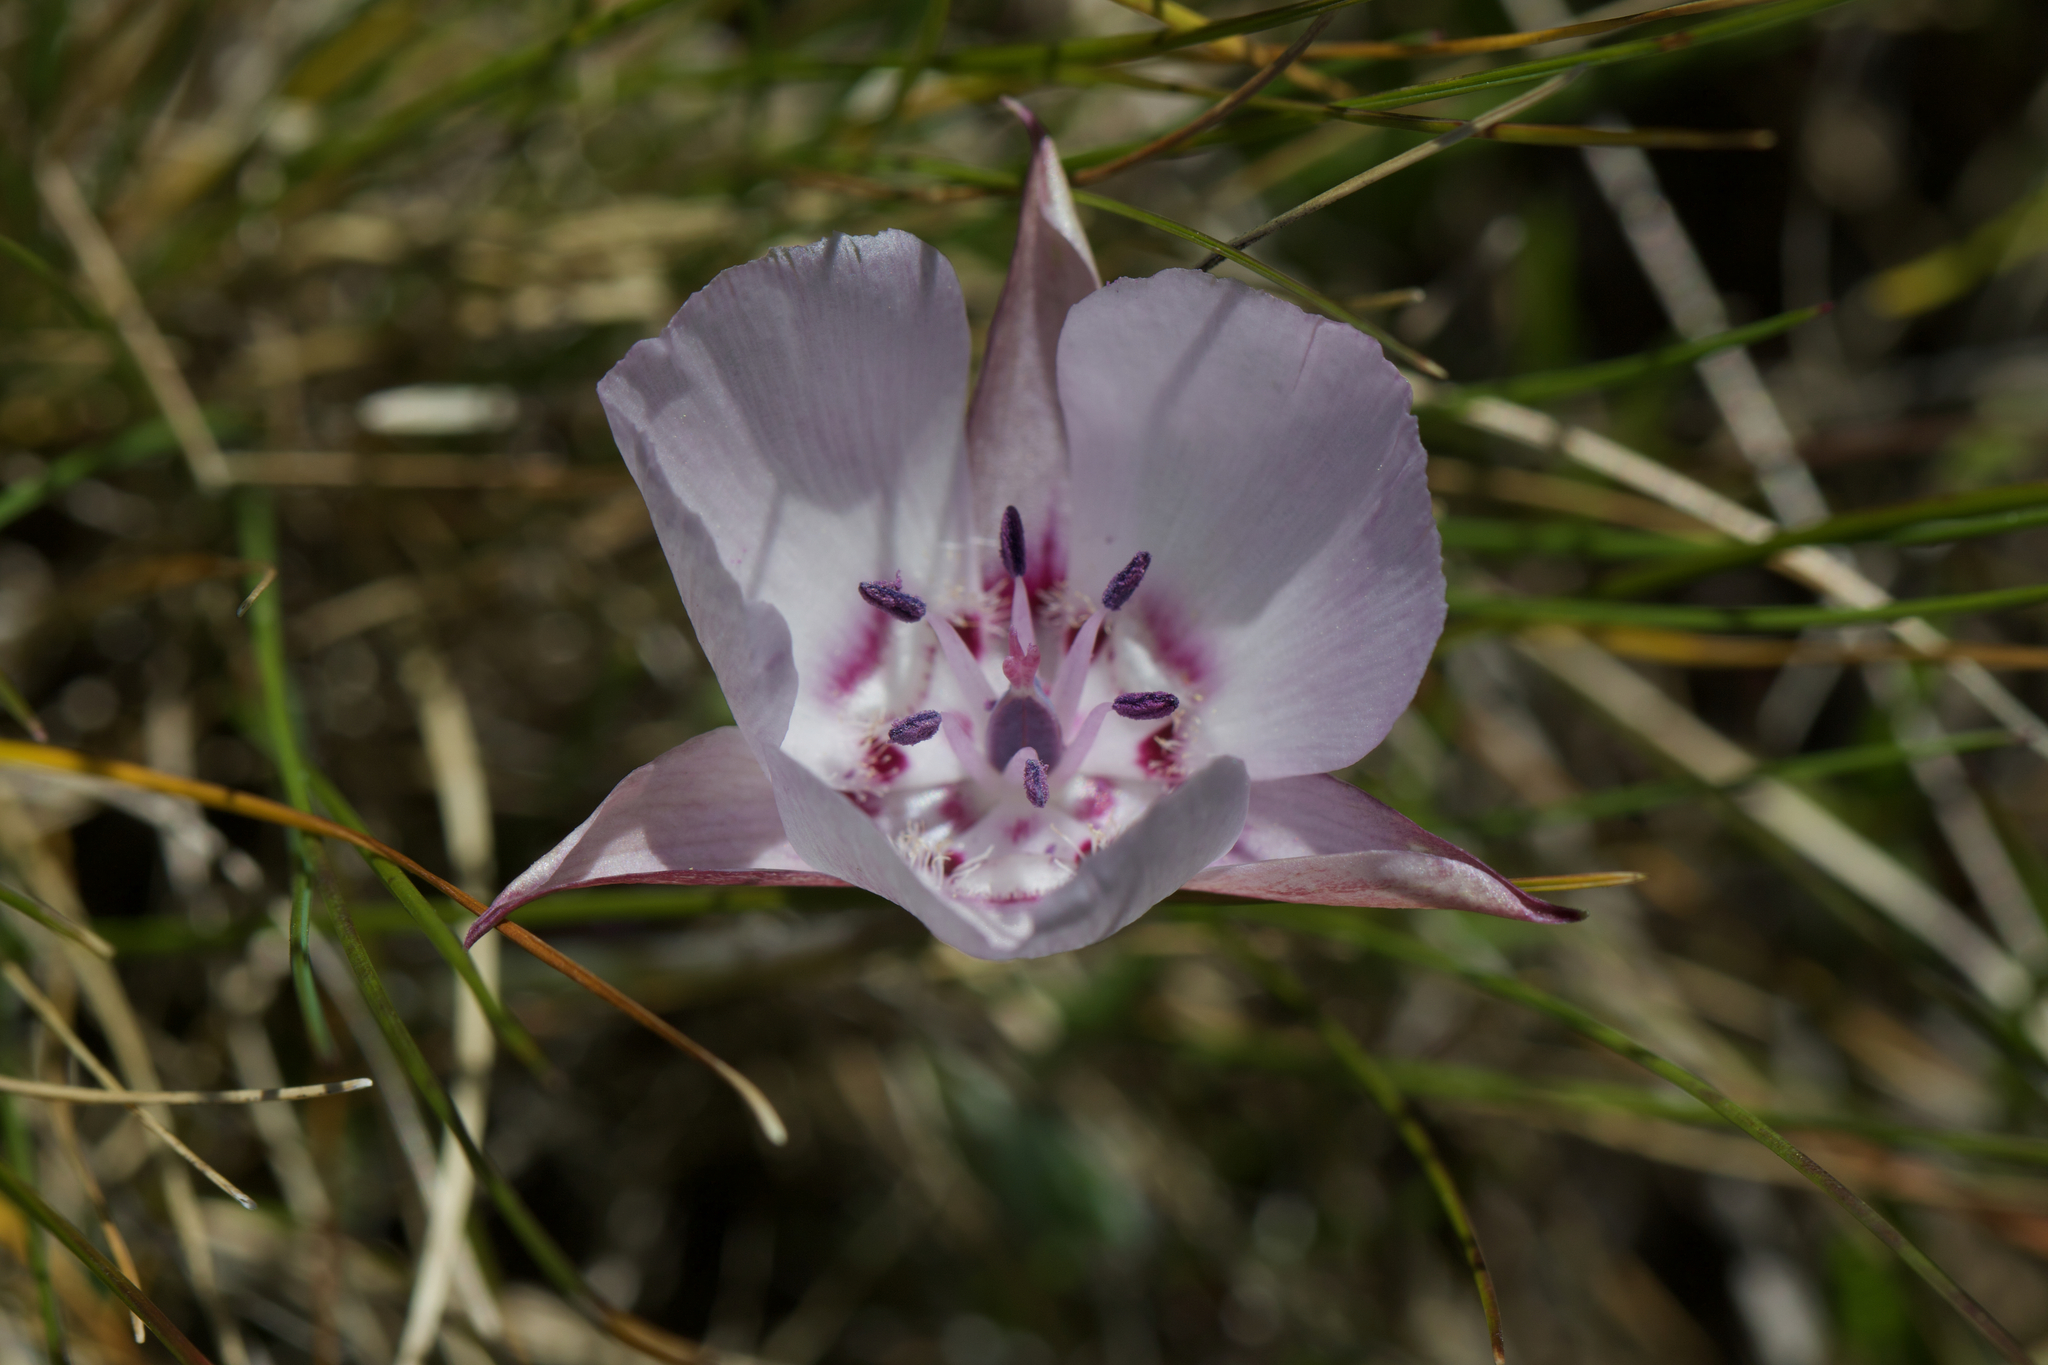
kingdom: Plantae
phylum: Tracheophyta
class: Liliopsida
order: Liliales
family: Liliaceae
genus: Calochortus
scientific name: Calochortus umbellatus
